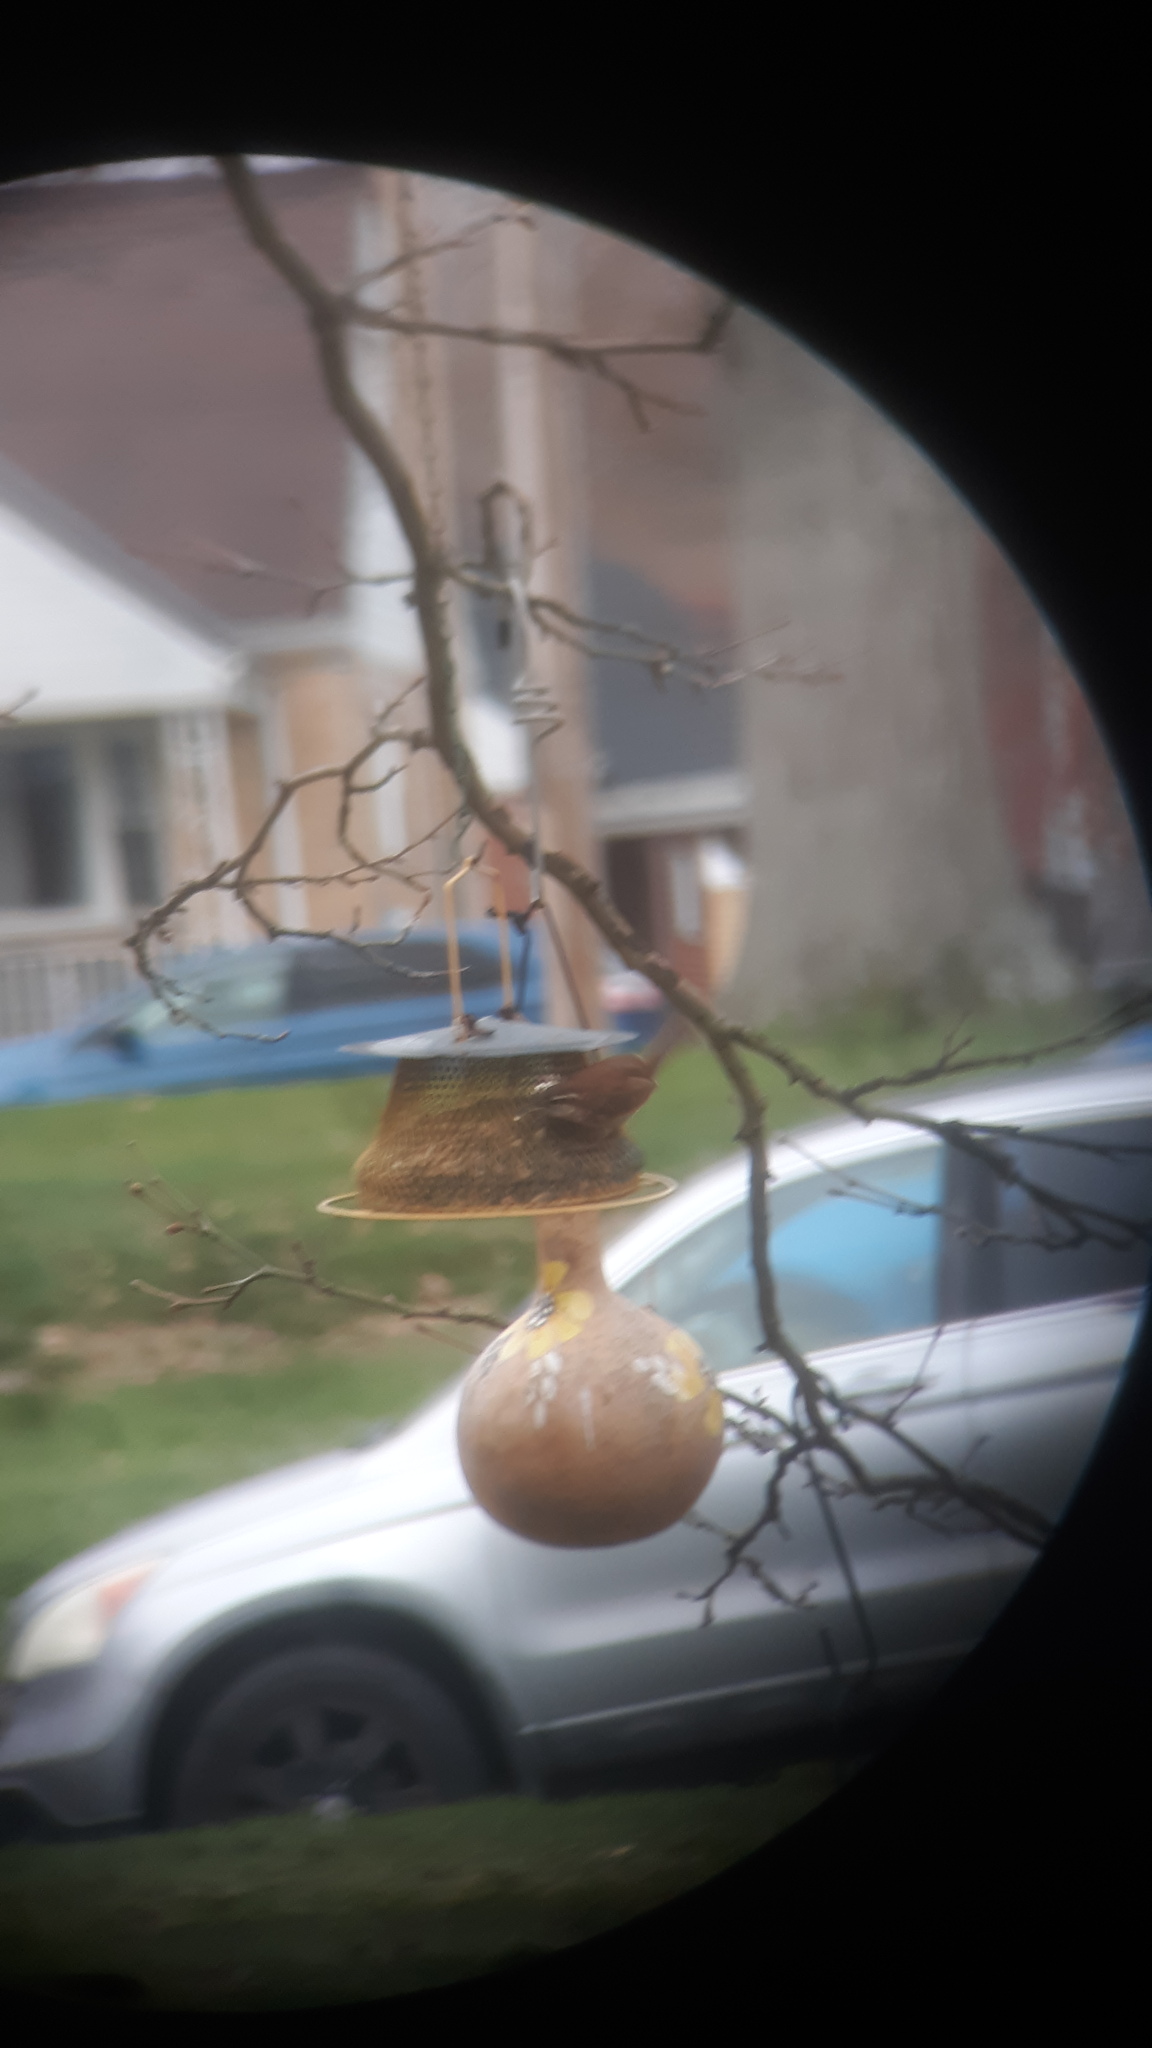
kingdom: Animalia
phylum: Chordata
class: Aves
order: Passeriformes
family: Troglodytidae
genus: Thryothorus
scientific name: Thryothorus ludovicianus
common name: Carolina wren
